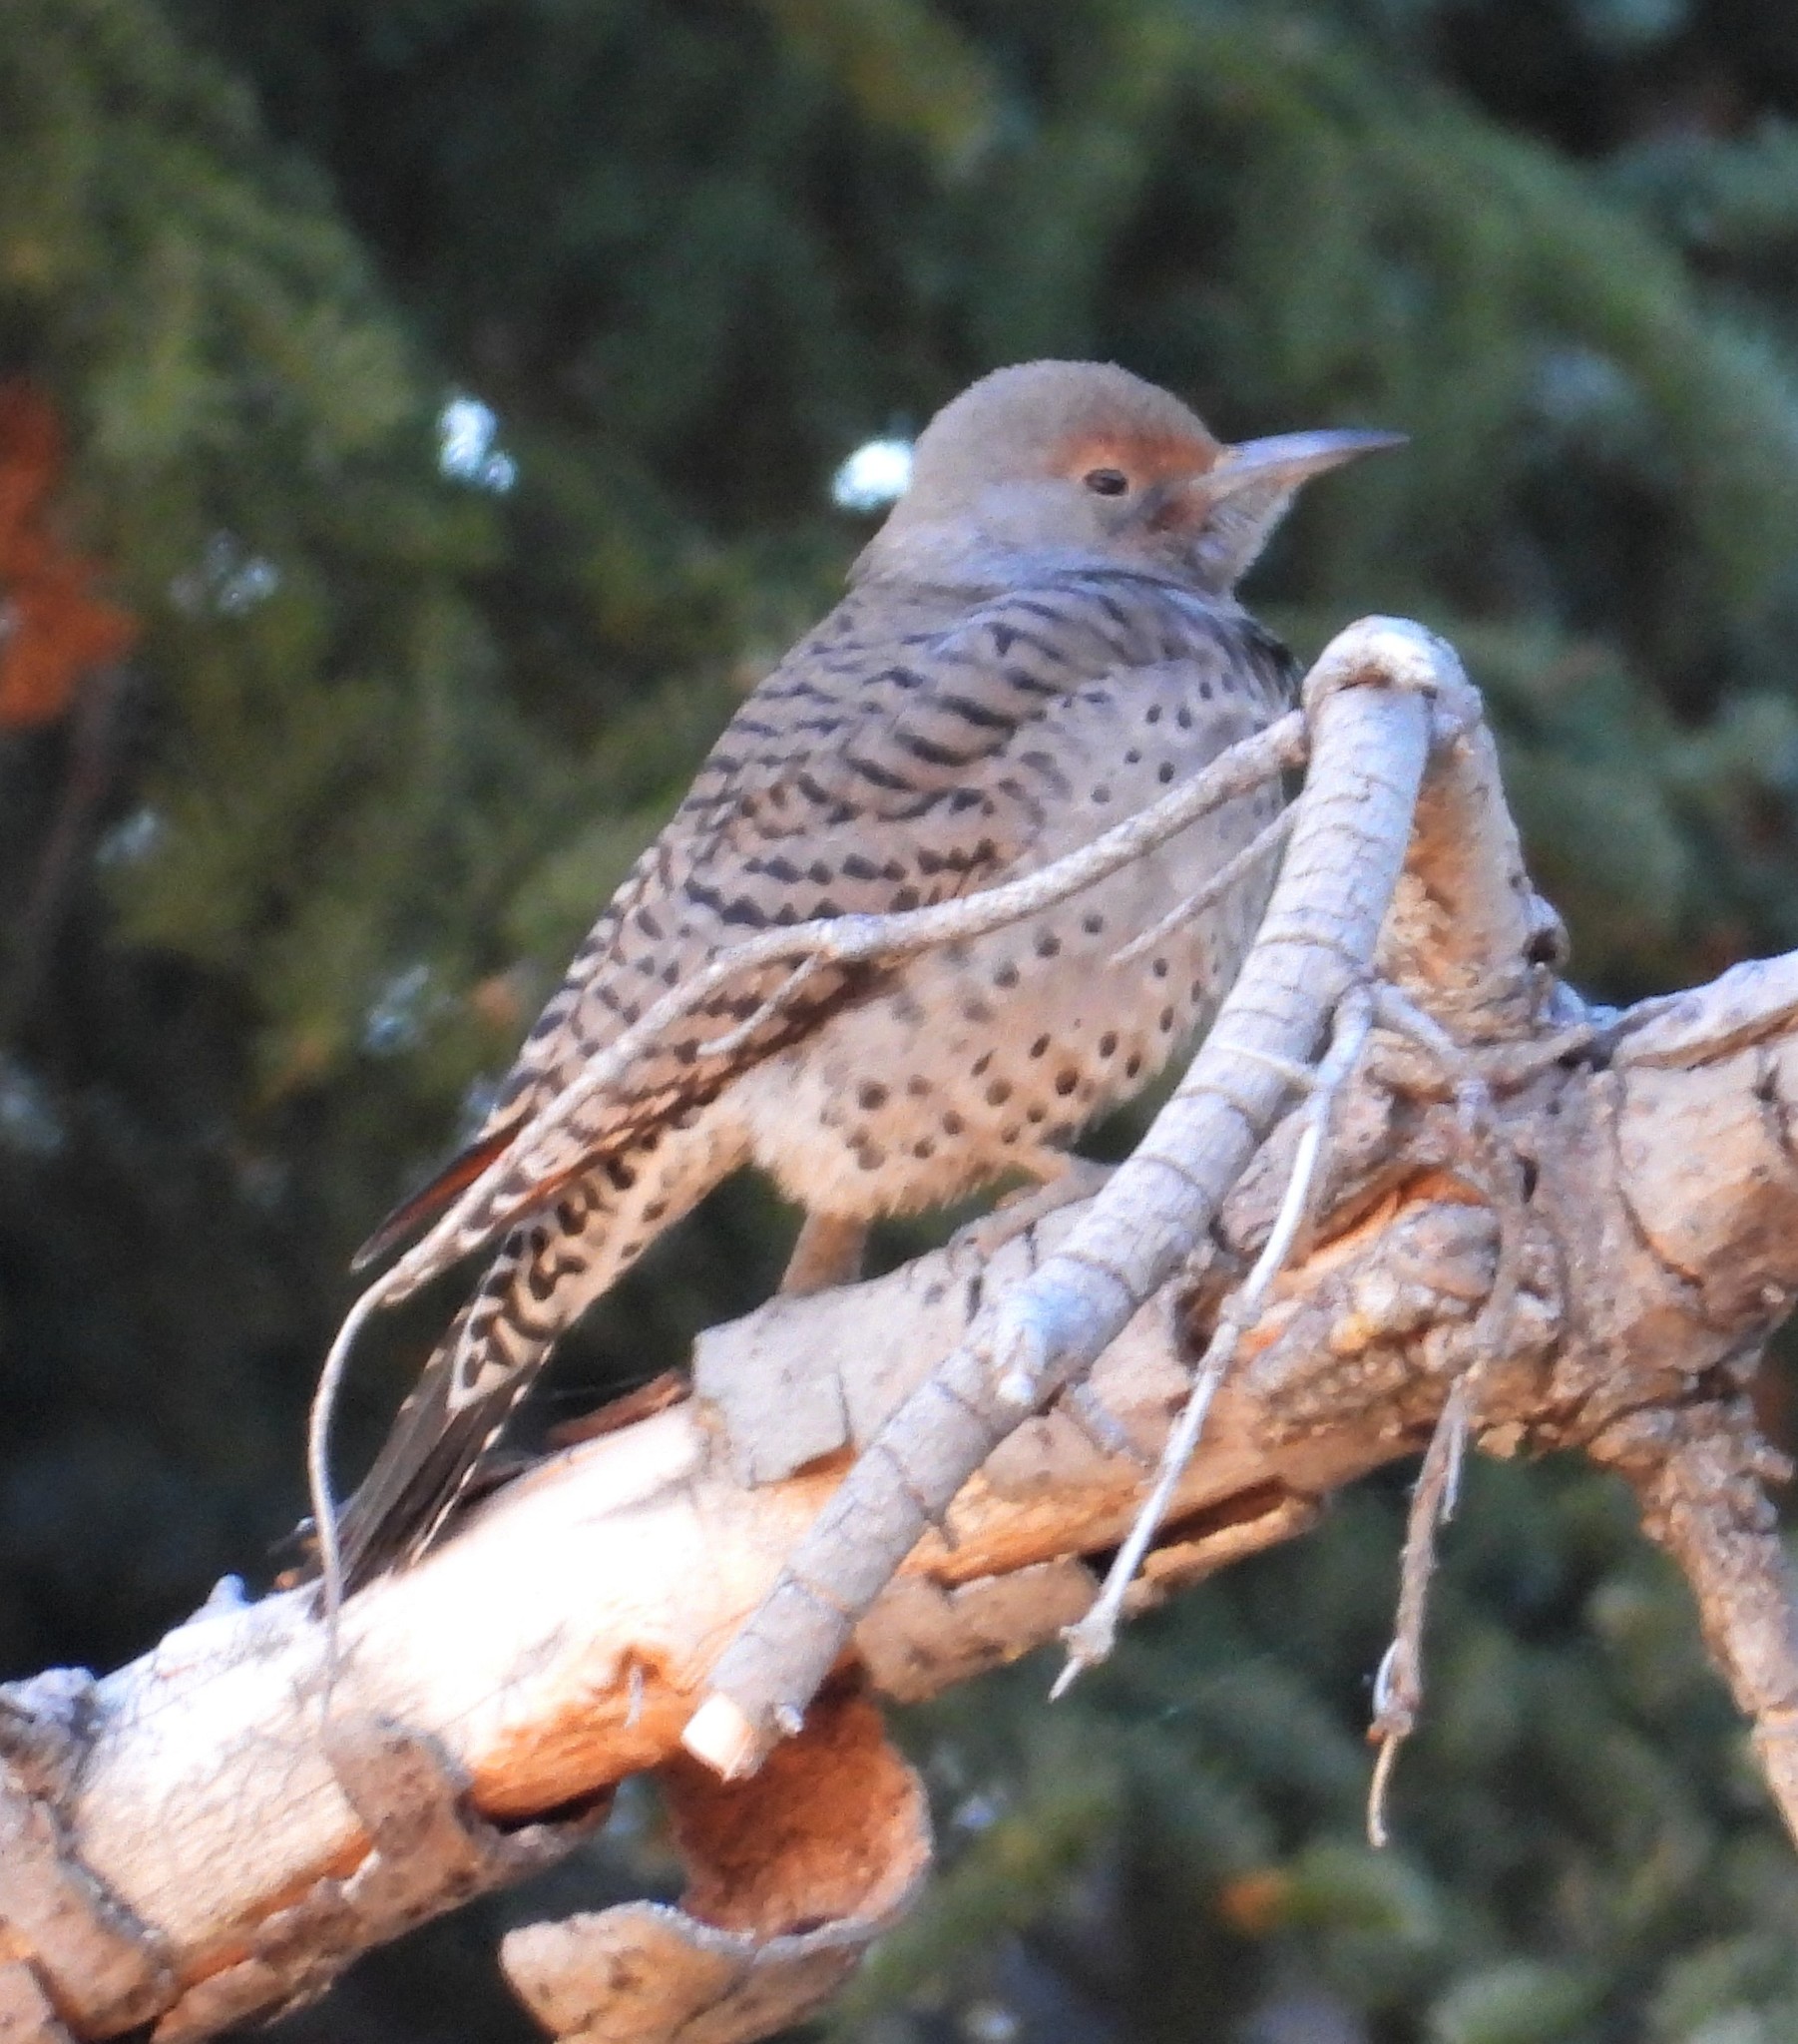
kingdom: Animalia
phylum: Chordata
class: Aves
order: Piciformes
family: Picidae
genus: Colaptes
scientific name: Colaptes auratus
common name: Northern flicker
